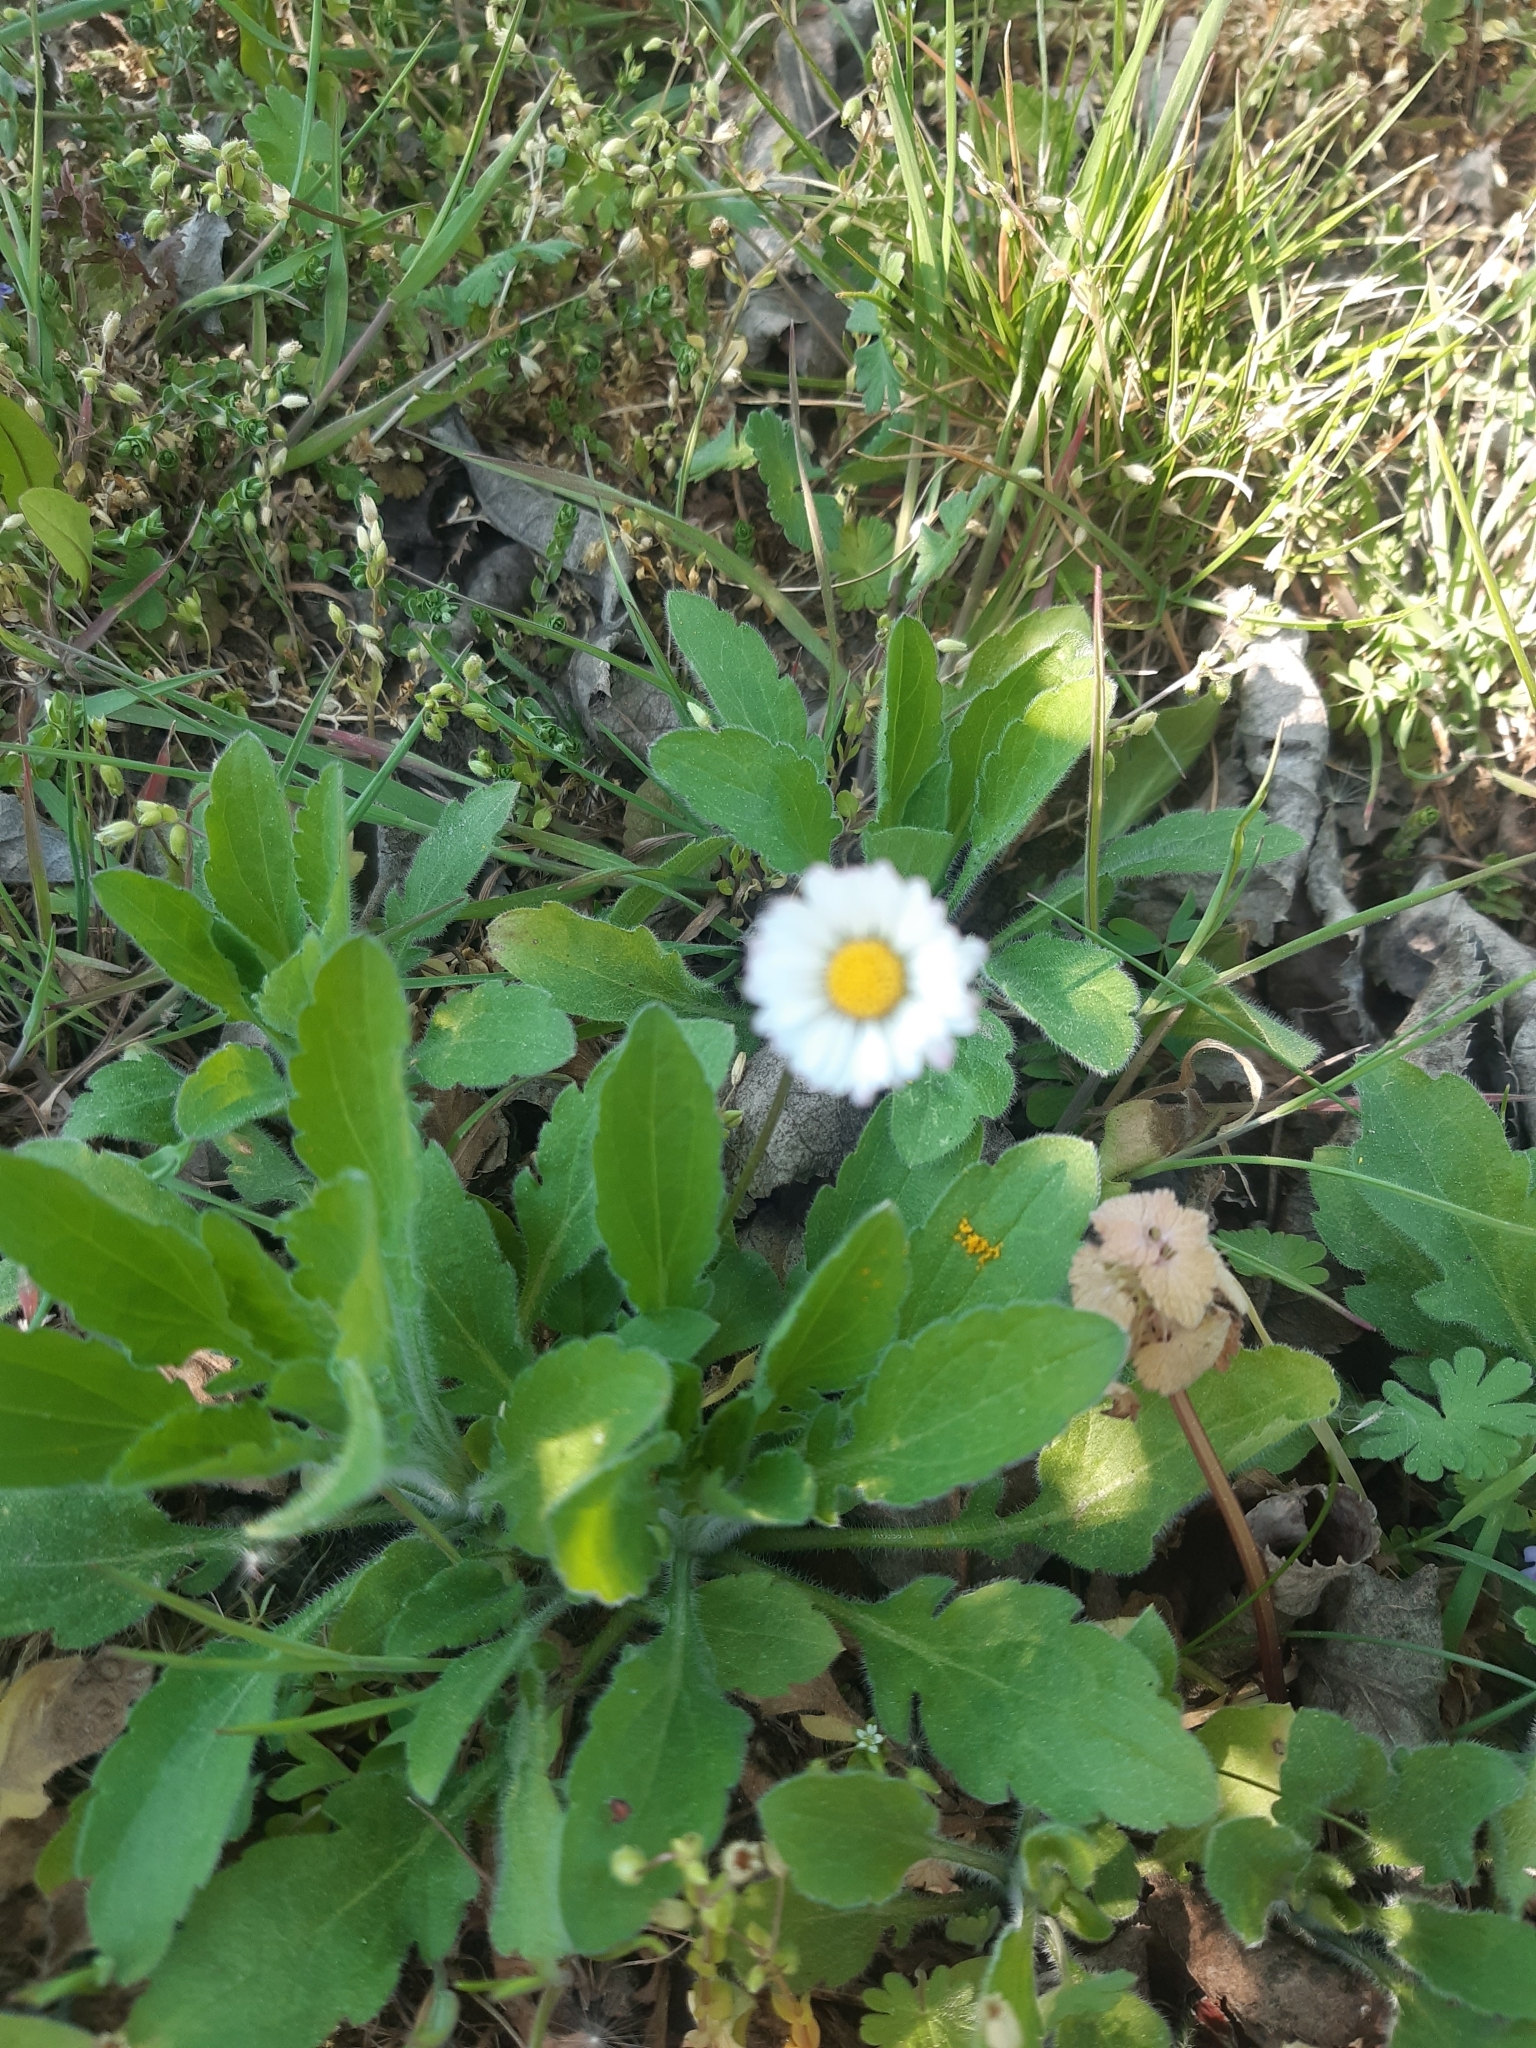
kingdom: Plantae
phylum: Tracheophyta
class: Magnoliopsida
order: Asterales
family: Asteraceae
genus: Bellis
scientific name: Bellis perennis
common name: Lawndaisy
